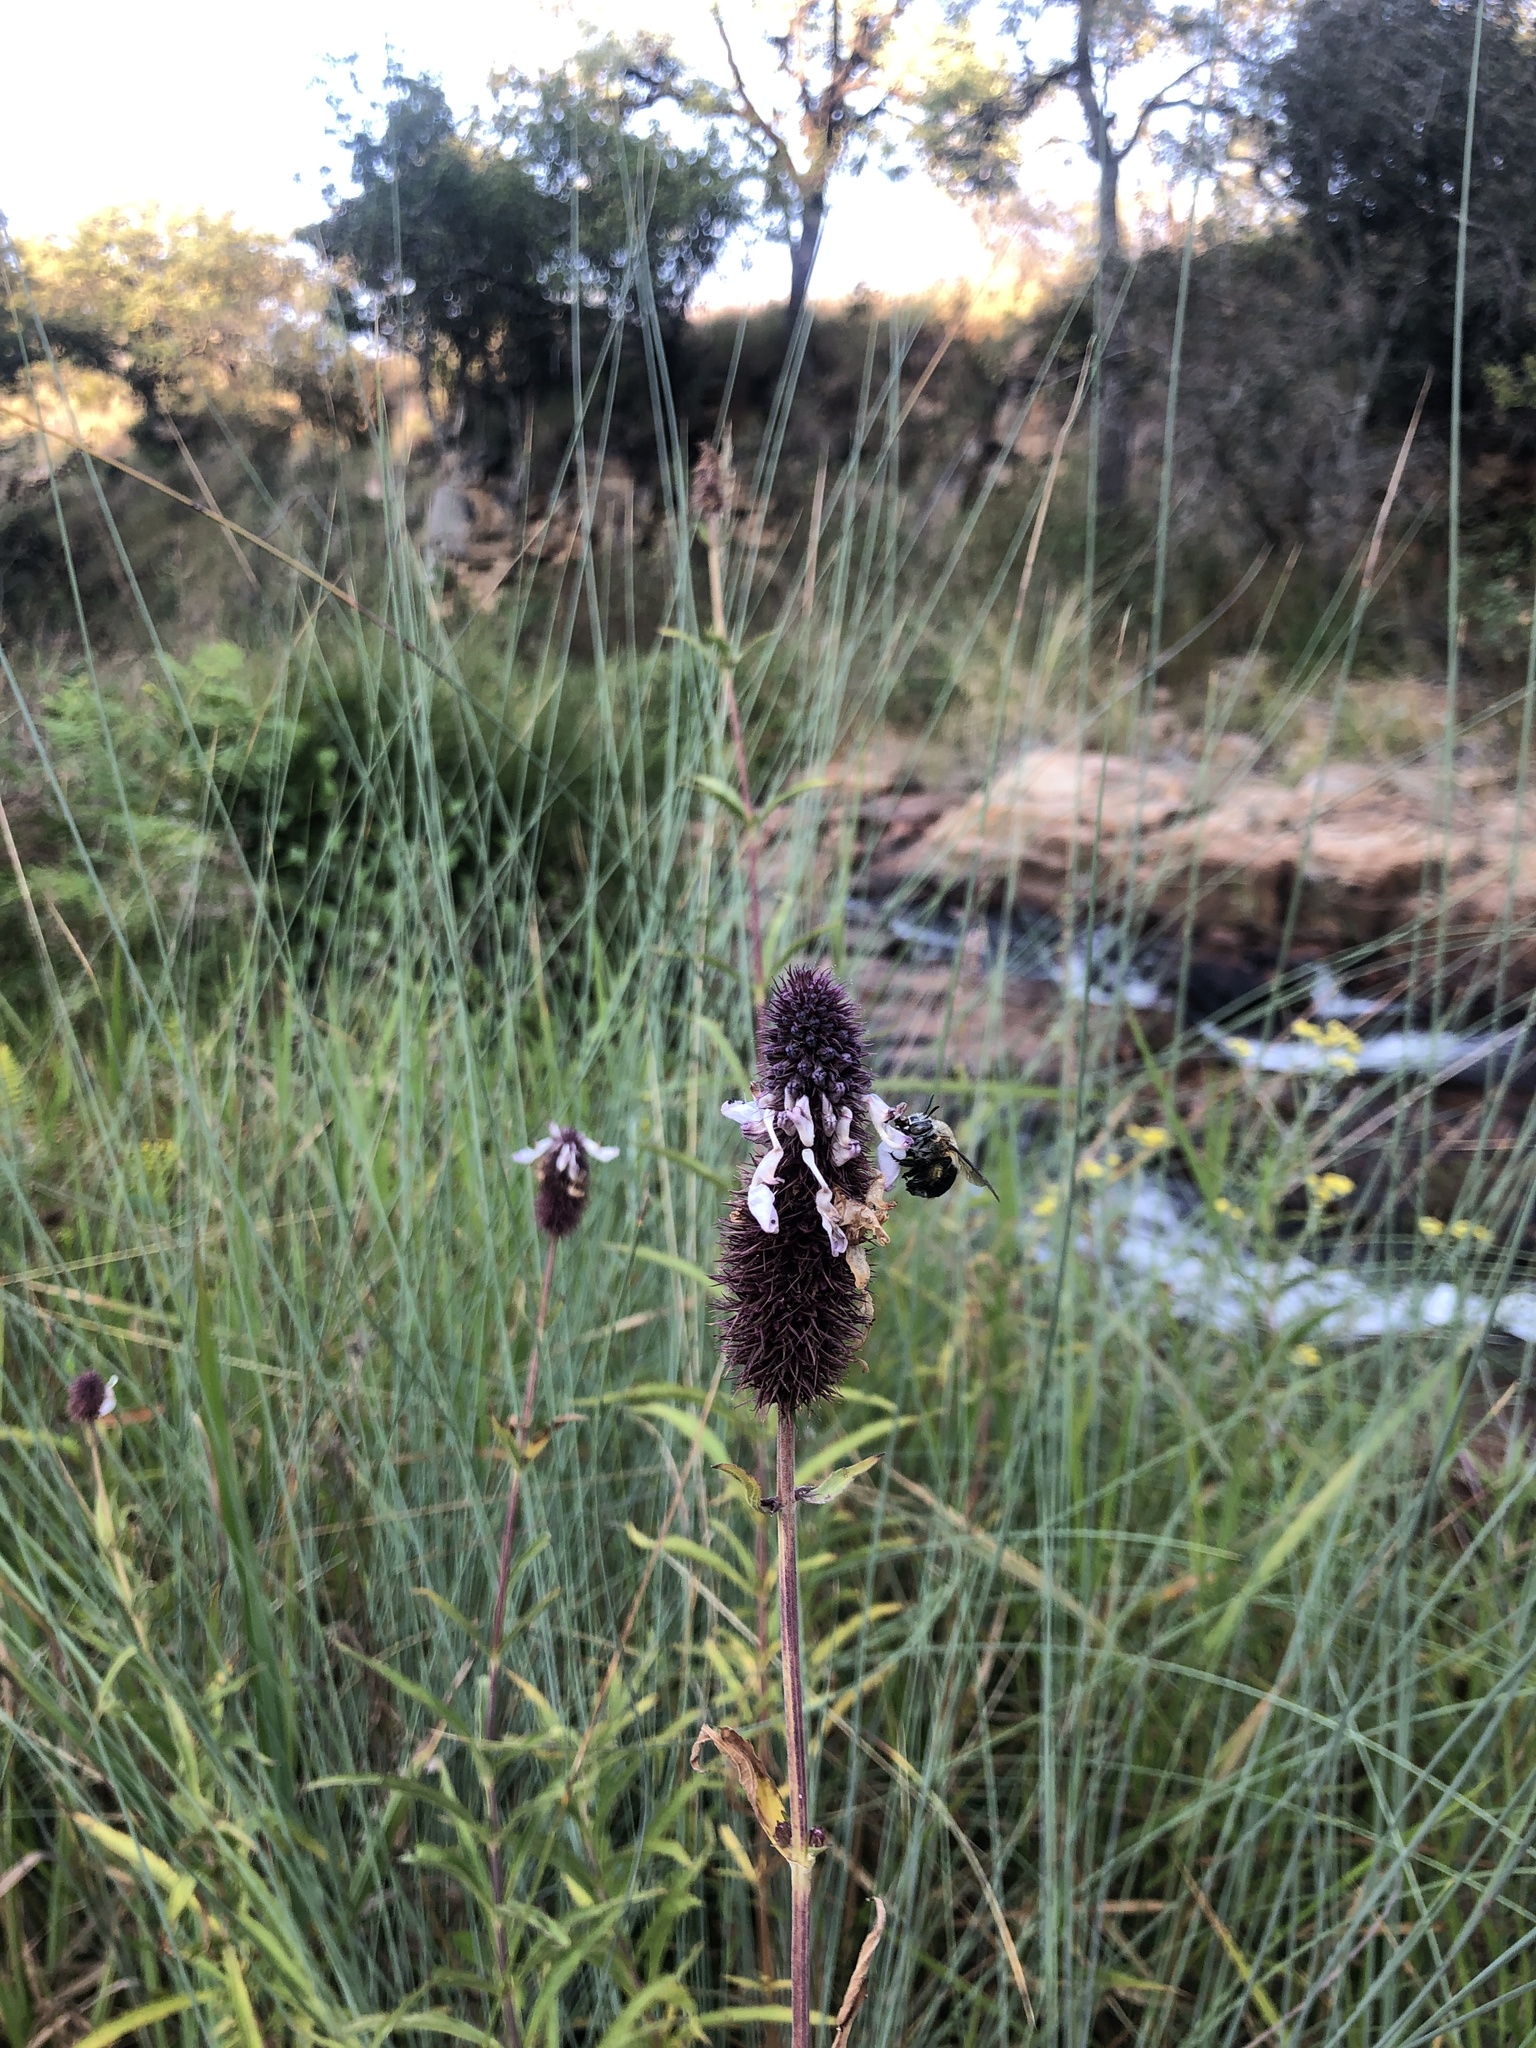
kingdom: Plantae
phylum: Tracheophyta
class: Magnoliopsida
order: Lamiales
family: Lamiaceae
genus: Coleus
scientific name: Coleus kirkii
